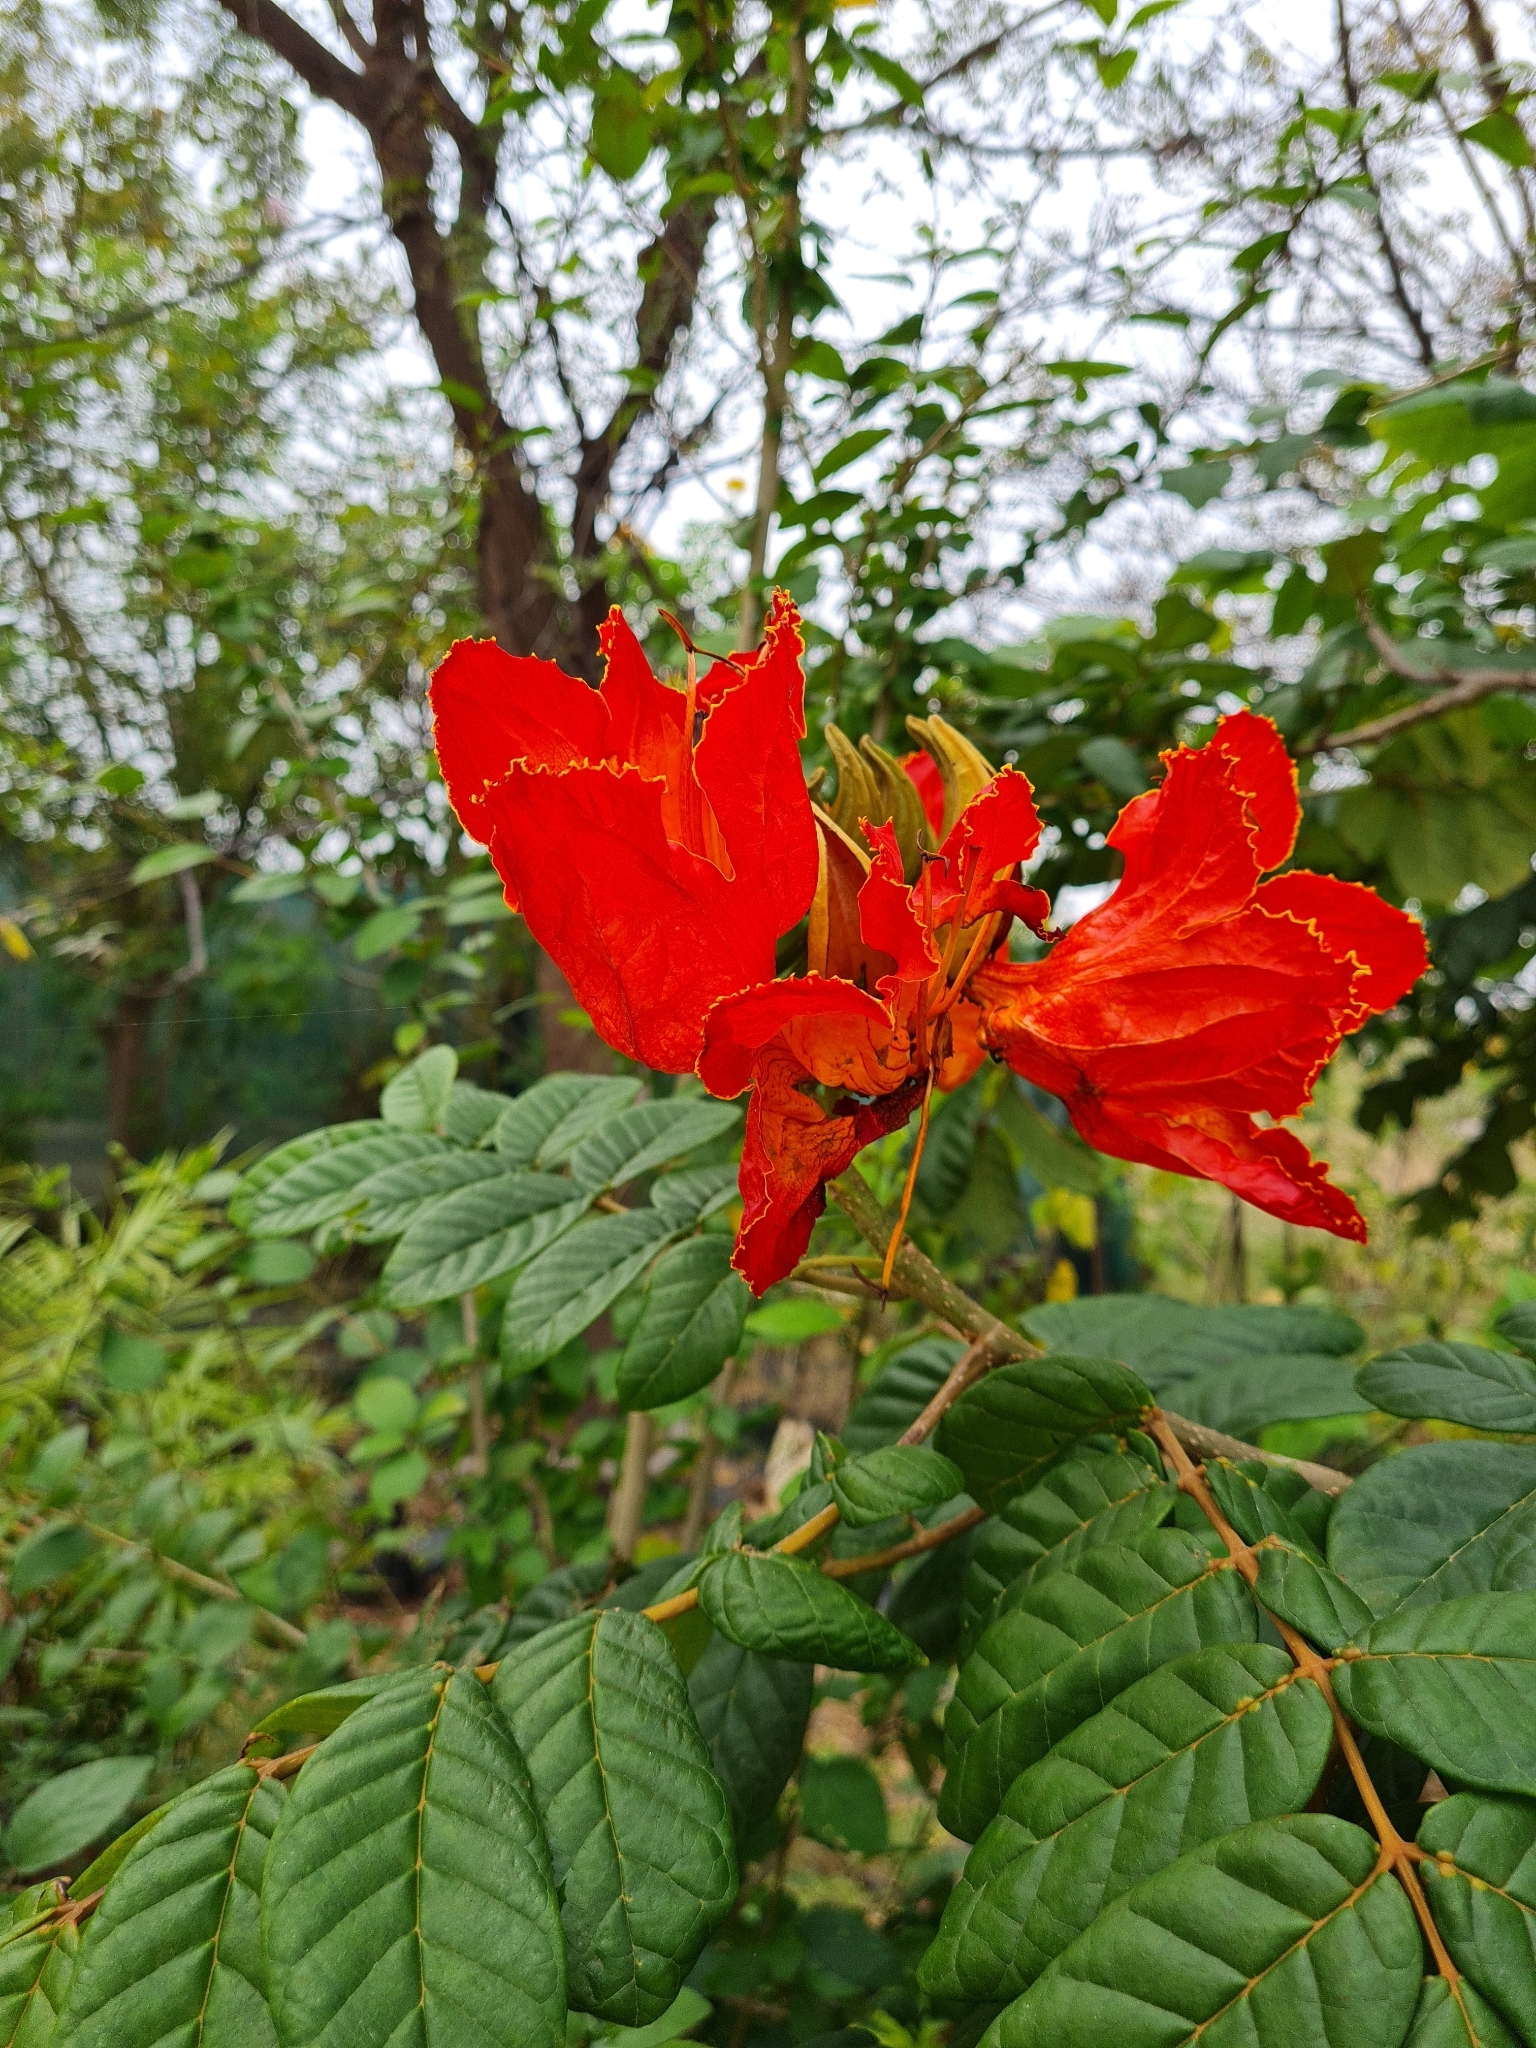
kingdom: Plantae
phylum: Tracheophyta
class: Magnoliopsida
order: Lamiales
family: Bignoniaceae
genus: Spathodea
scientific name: Spathodea campanulata
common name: African tuliptree
